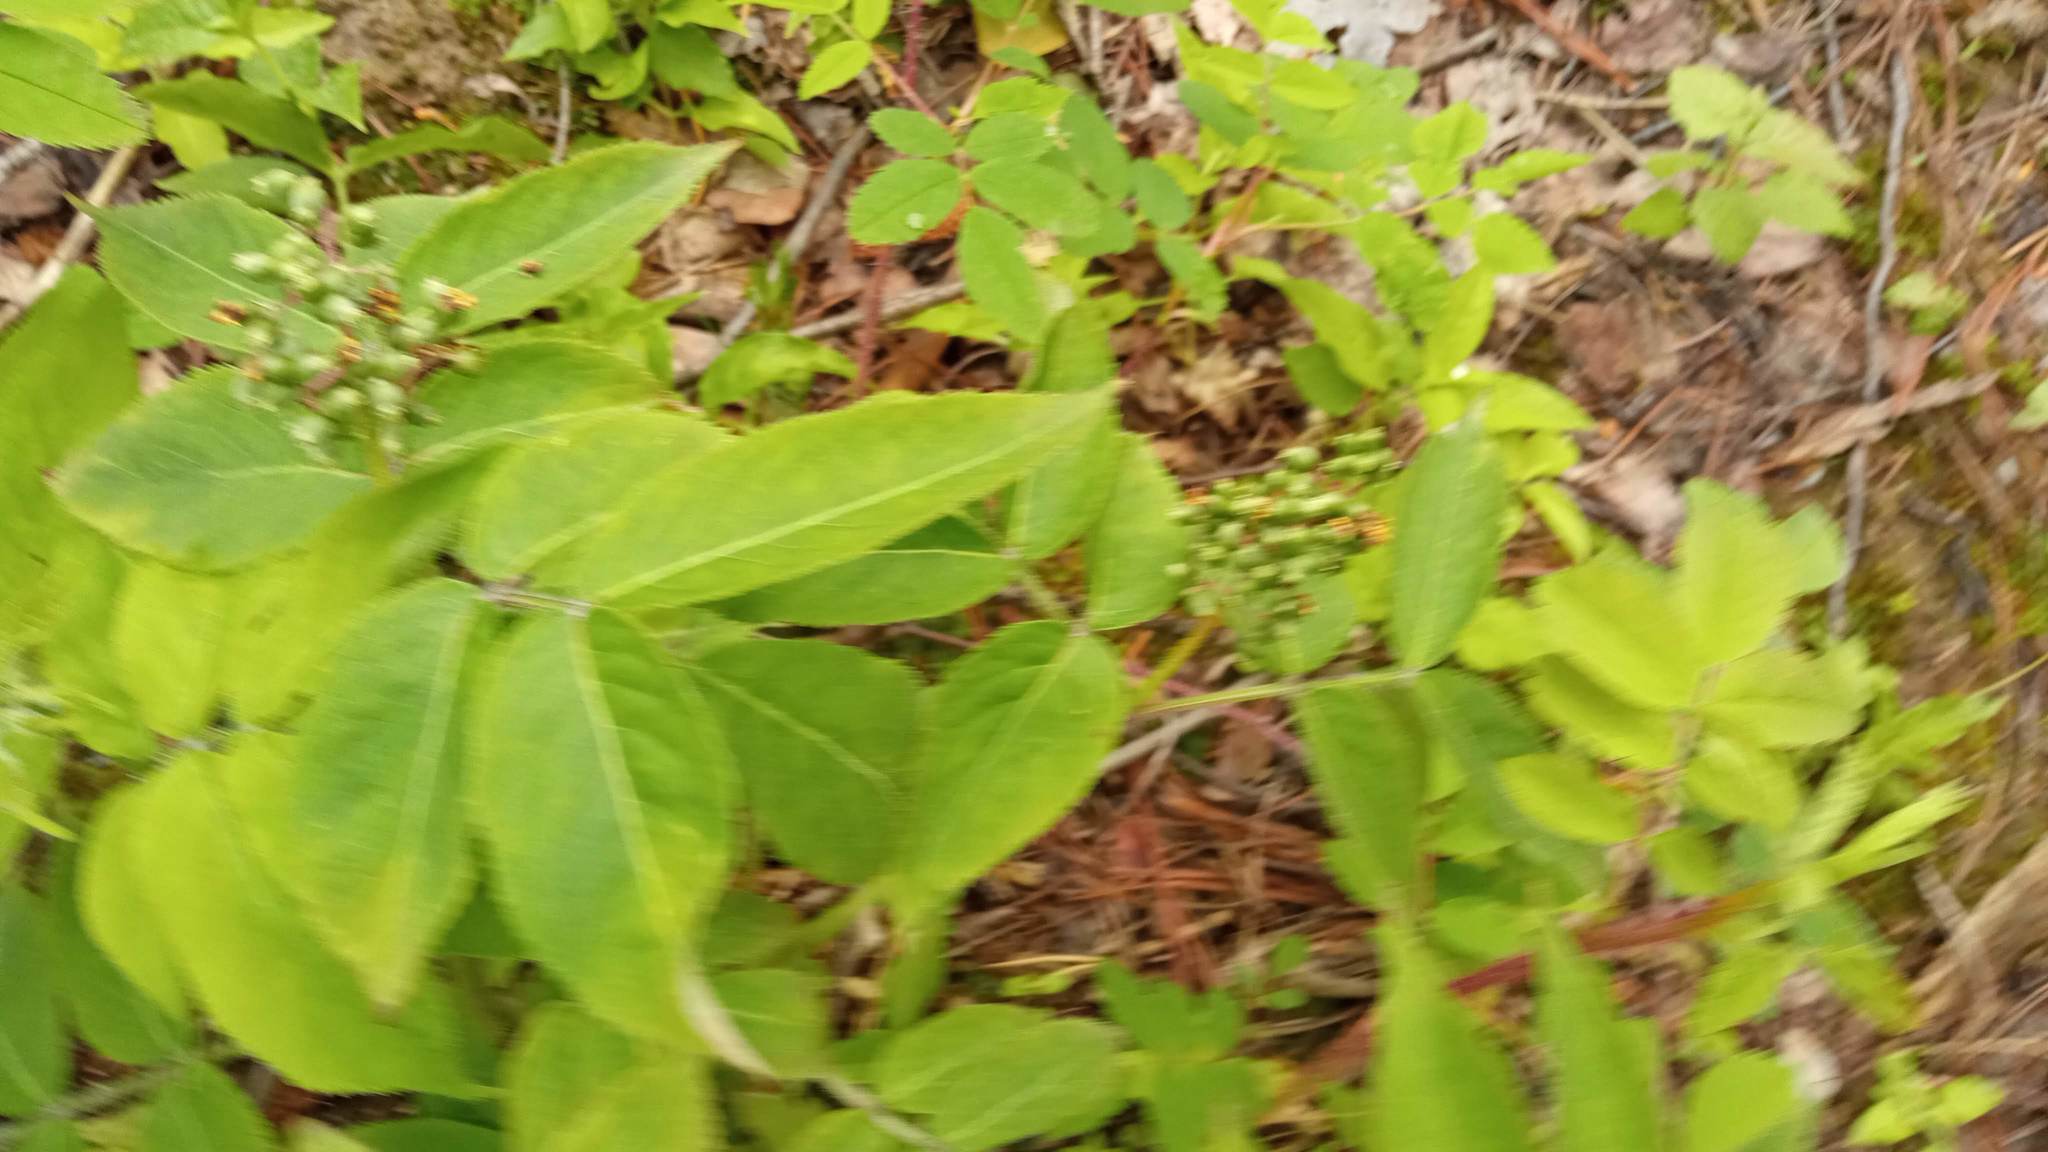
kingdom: Plantae
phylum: Tracheophyta
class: Magnoliopsida
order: Dipsacales
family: Viburnaceae
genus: Sambucus
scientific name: Sambucus sibirica
